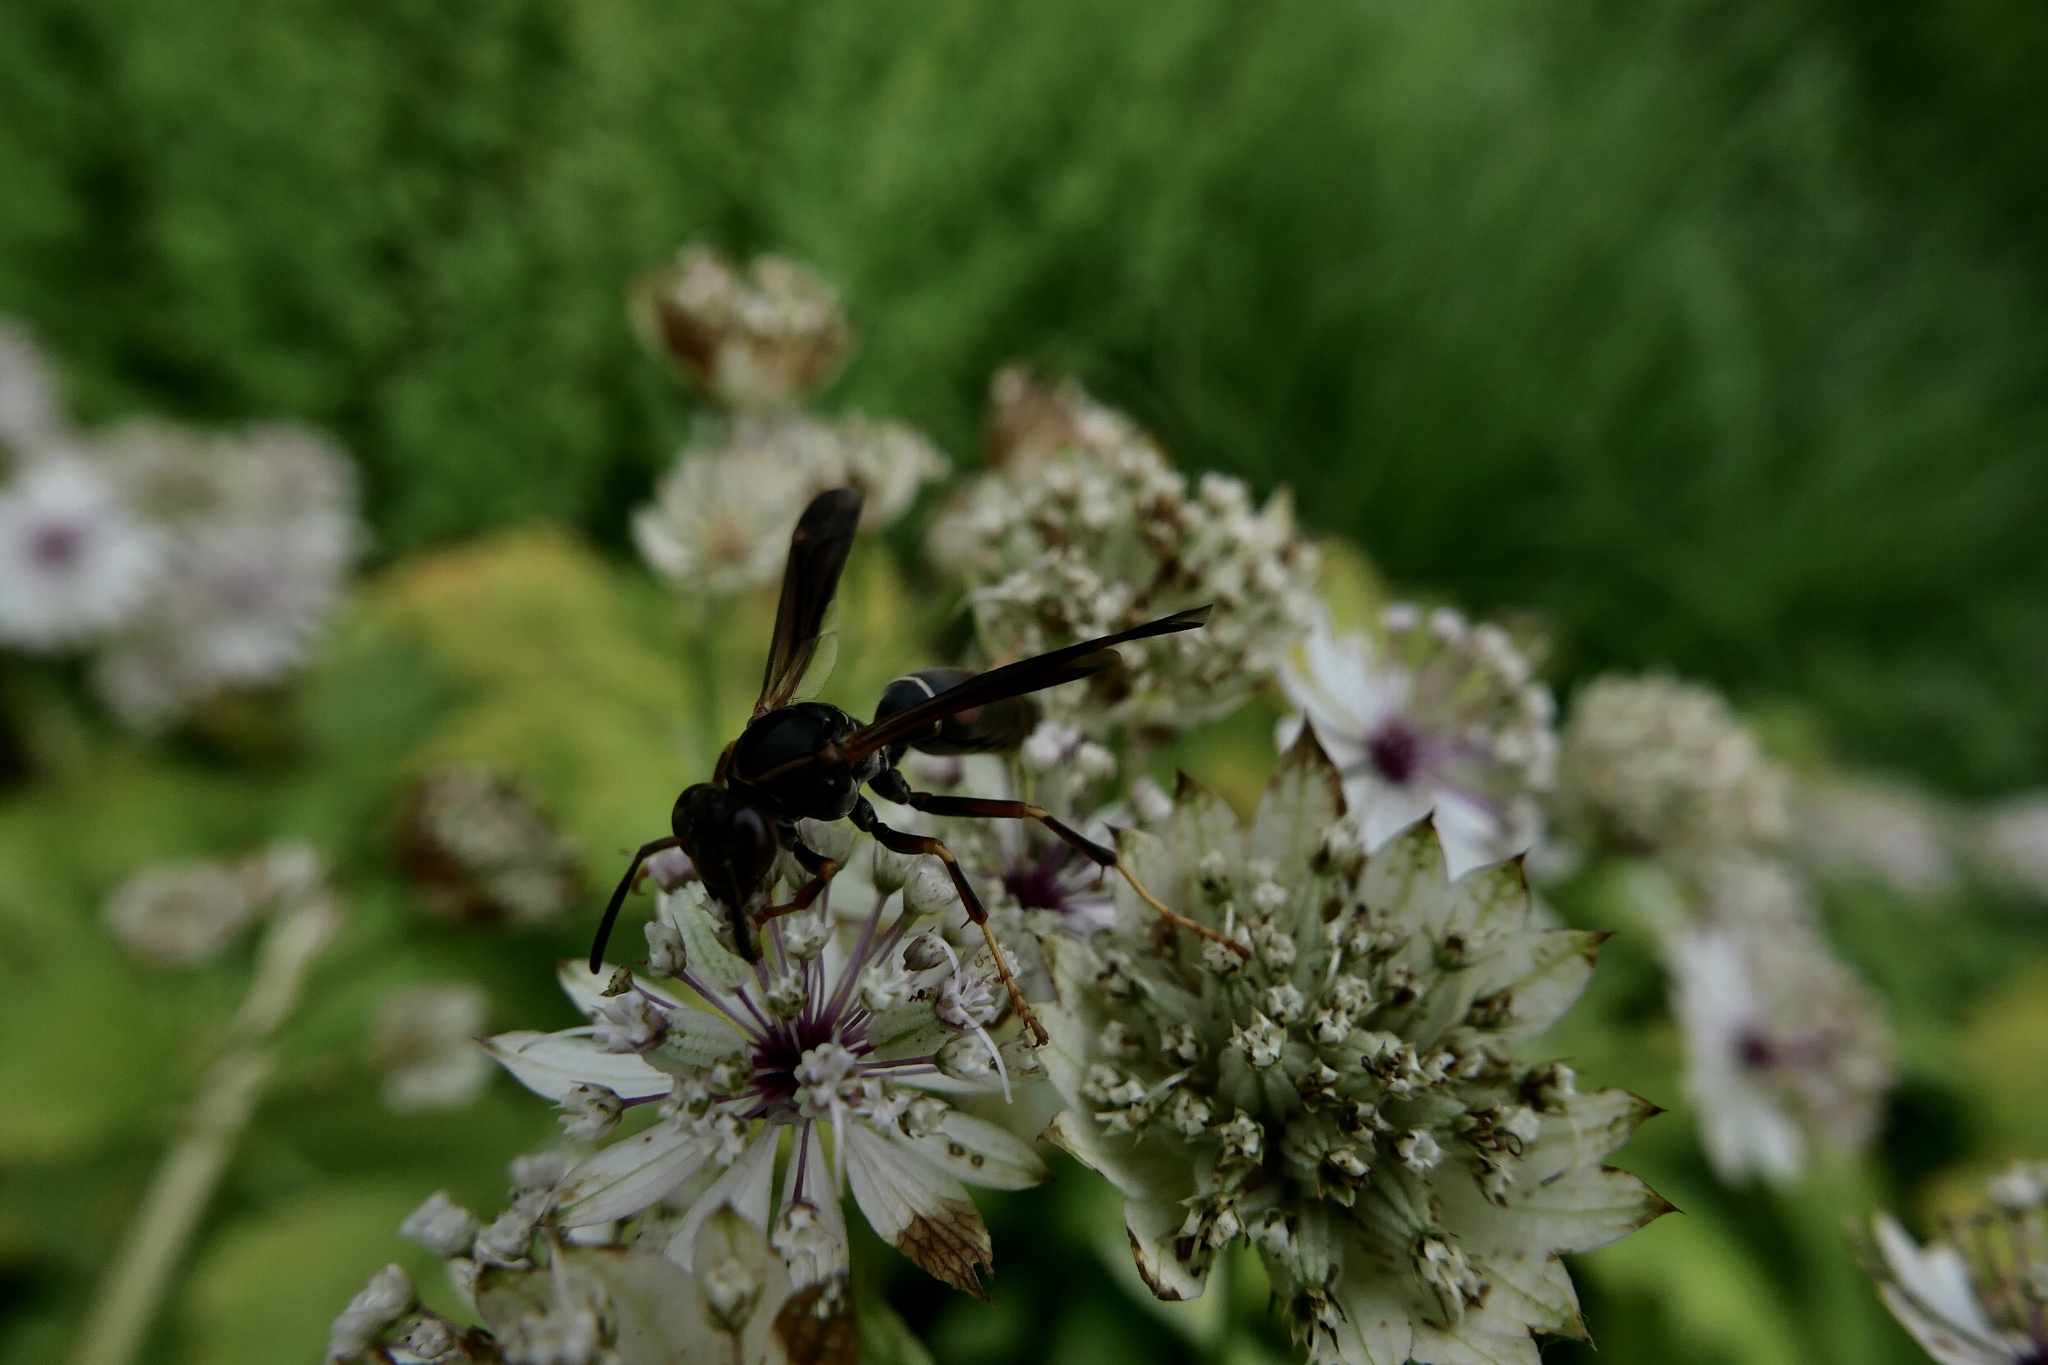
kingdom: Animalia
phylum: Arthropoda
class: Insecta
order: Hymenoptera
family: Eumenidae
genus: Polistes
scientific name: Polistes fuscatus
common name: Dark paper wasp
